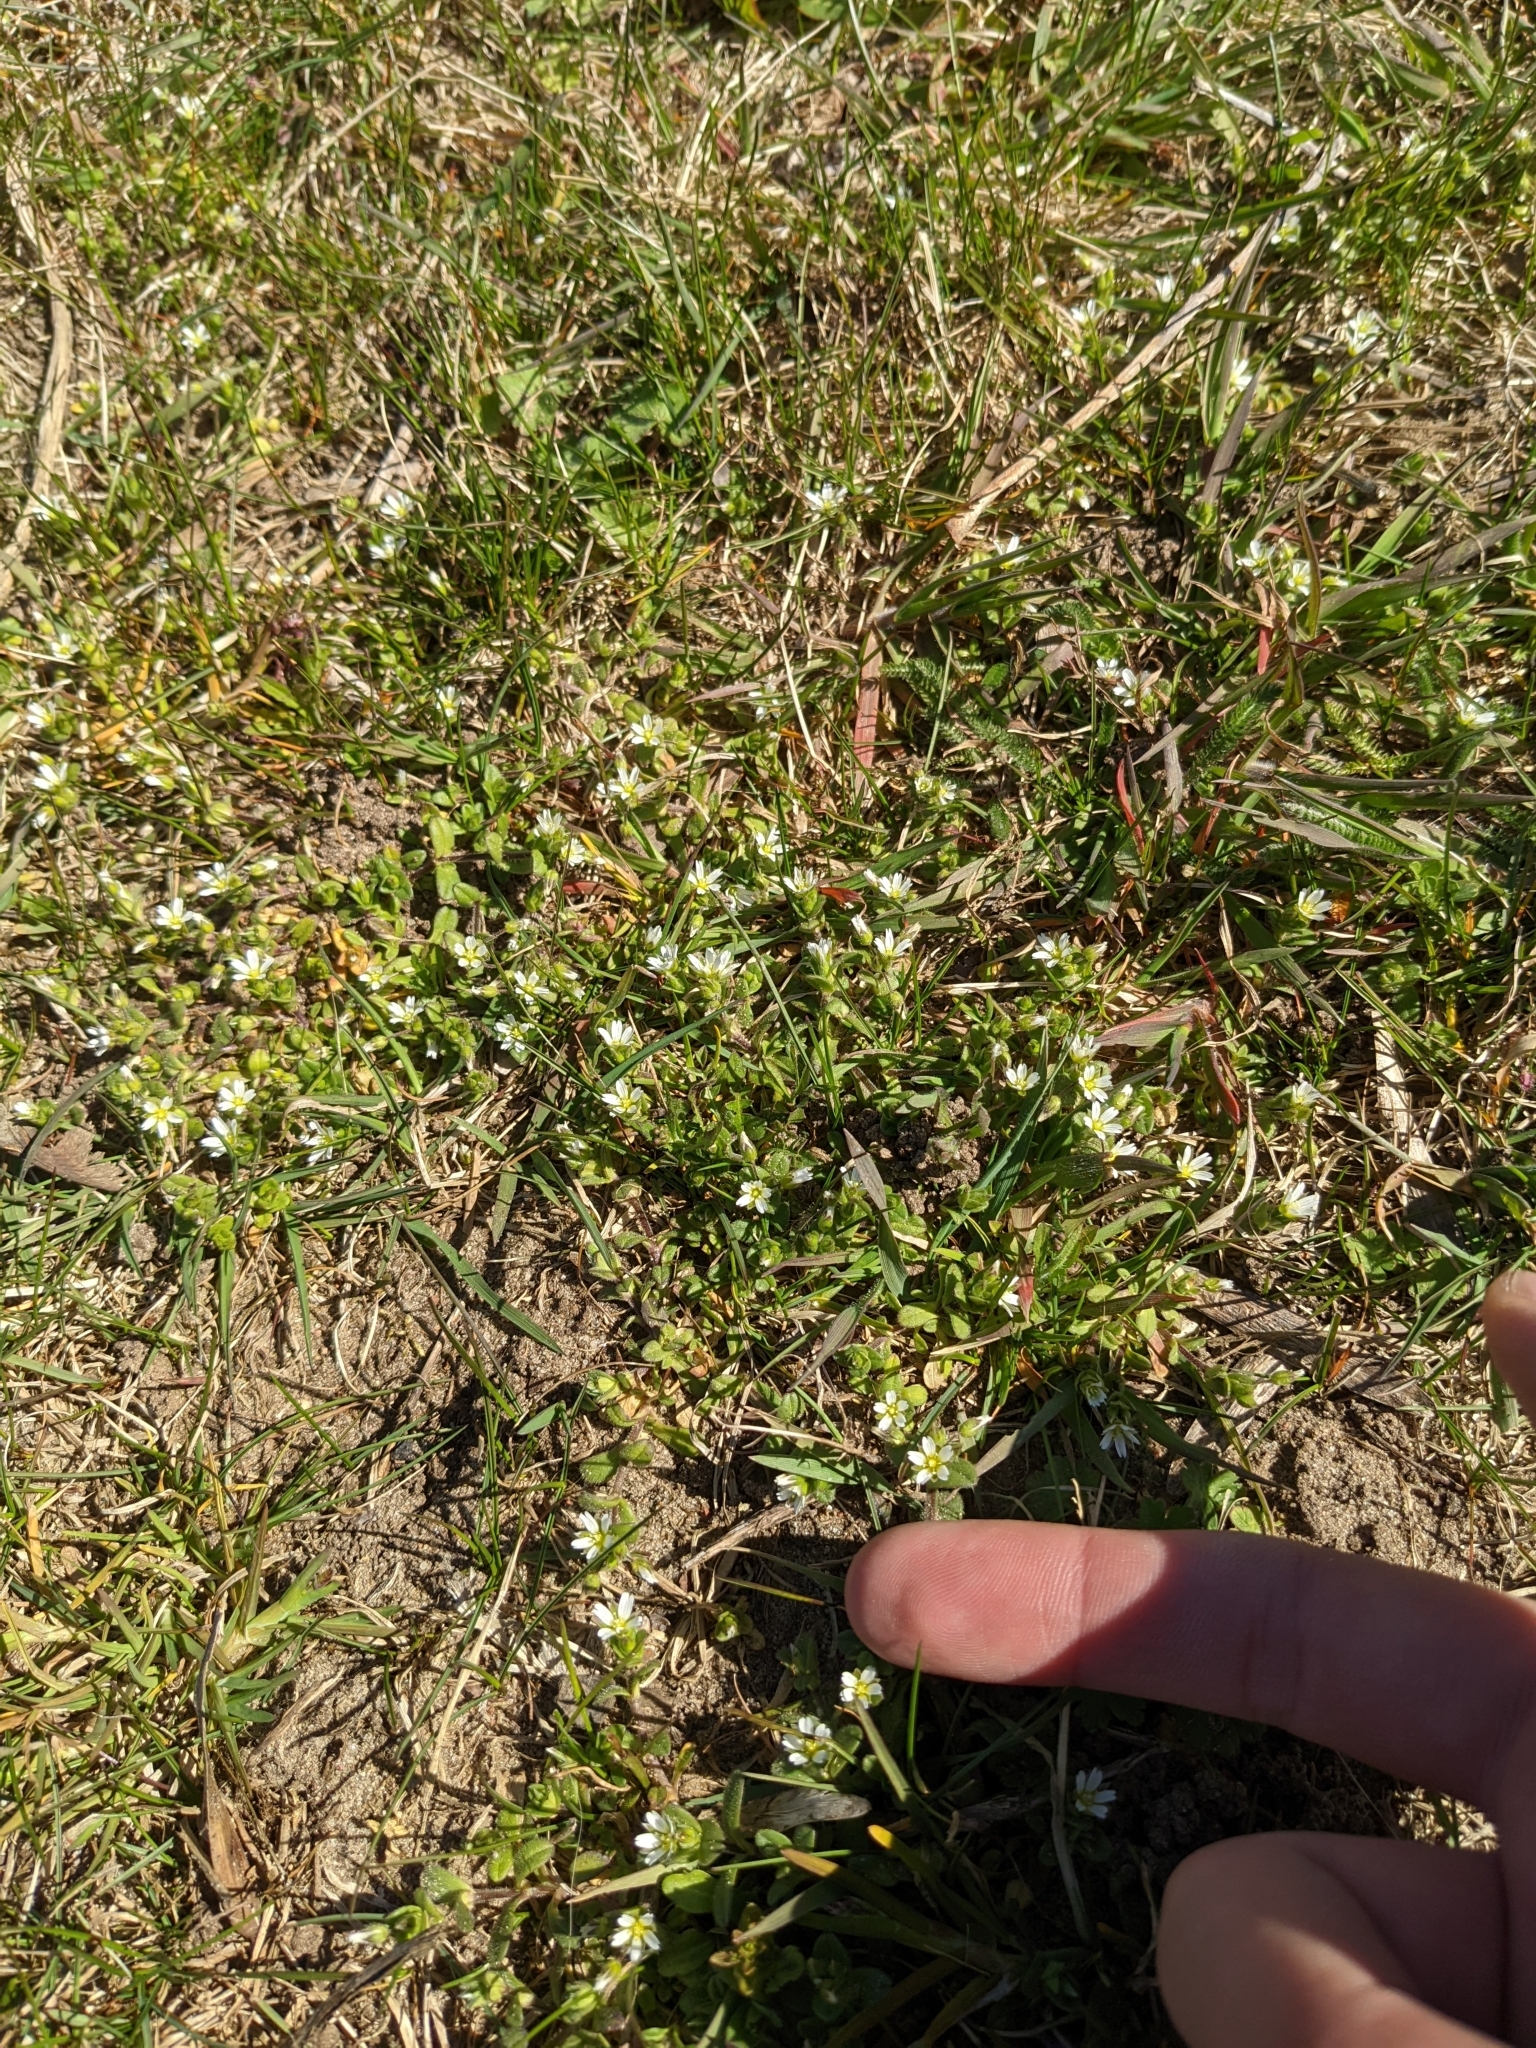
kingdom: Plantae
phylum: Tracheophyta
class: Magnoliopsida
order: Caryophyllales
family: Caryophyllaceae
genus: Cerastium
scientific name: Cerastium semidecandrum
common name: Little mouse-ear
